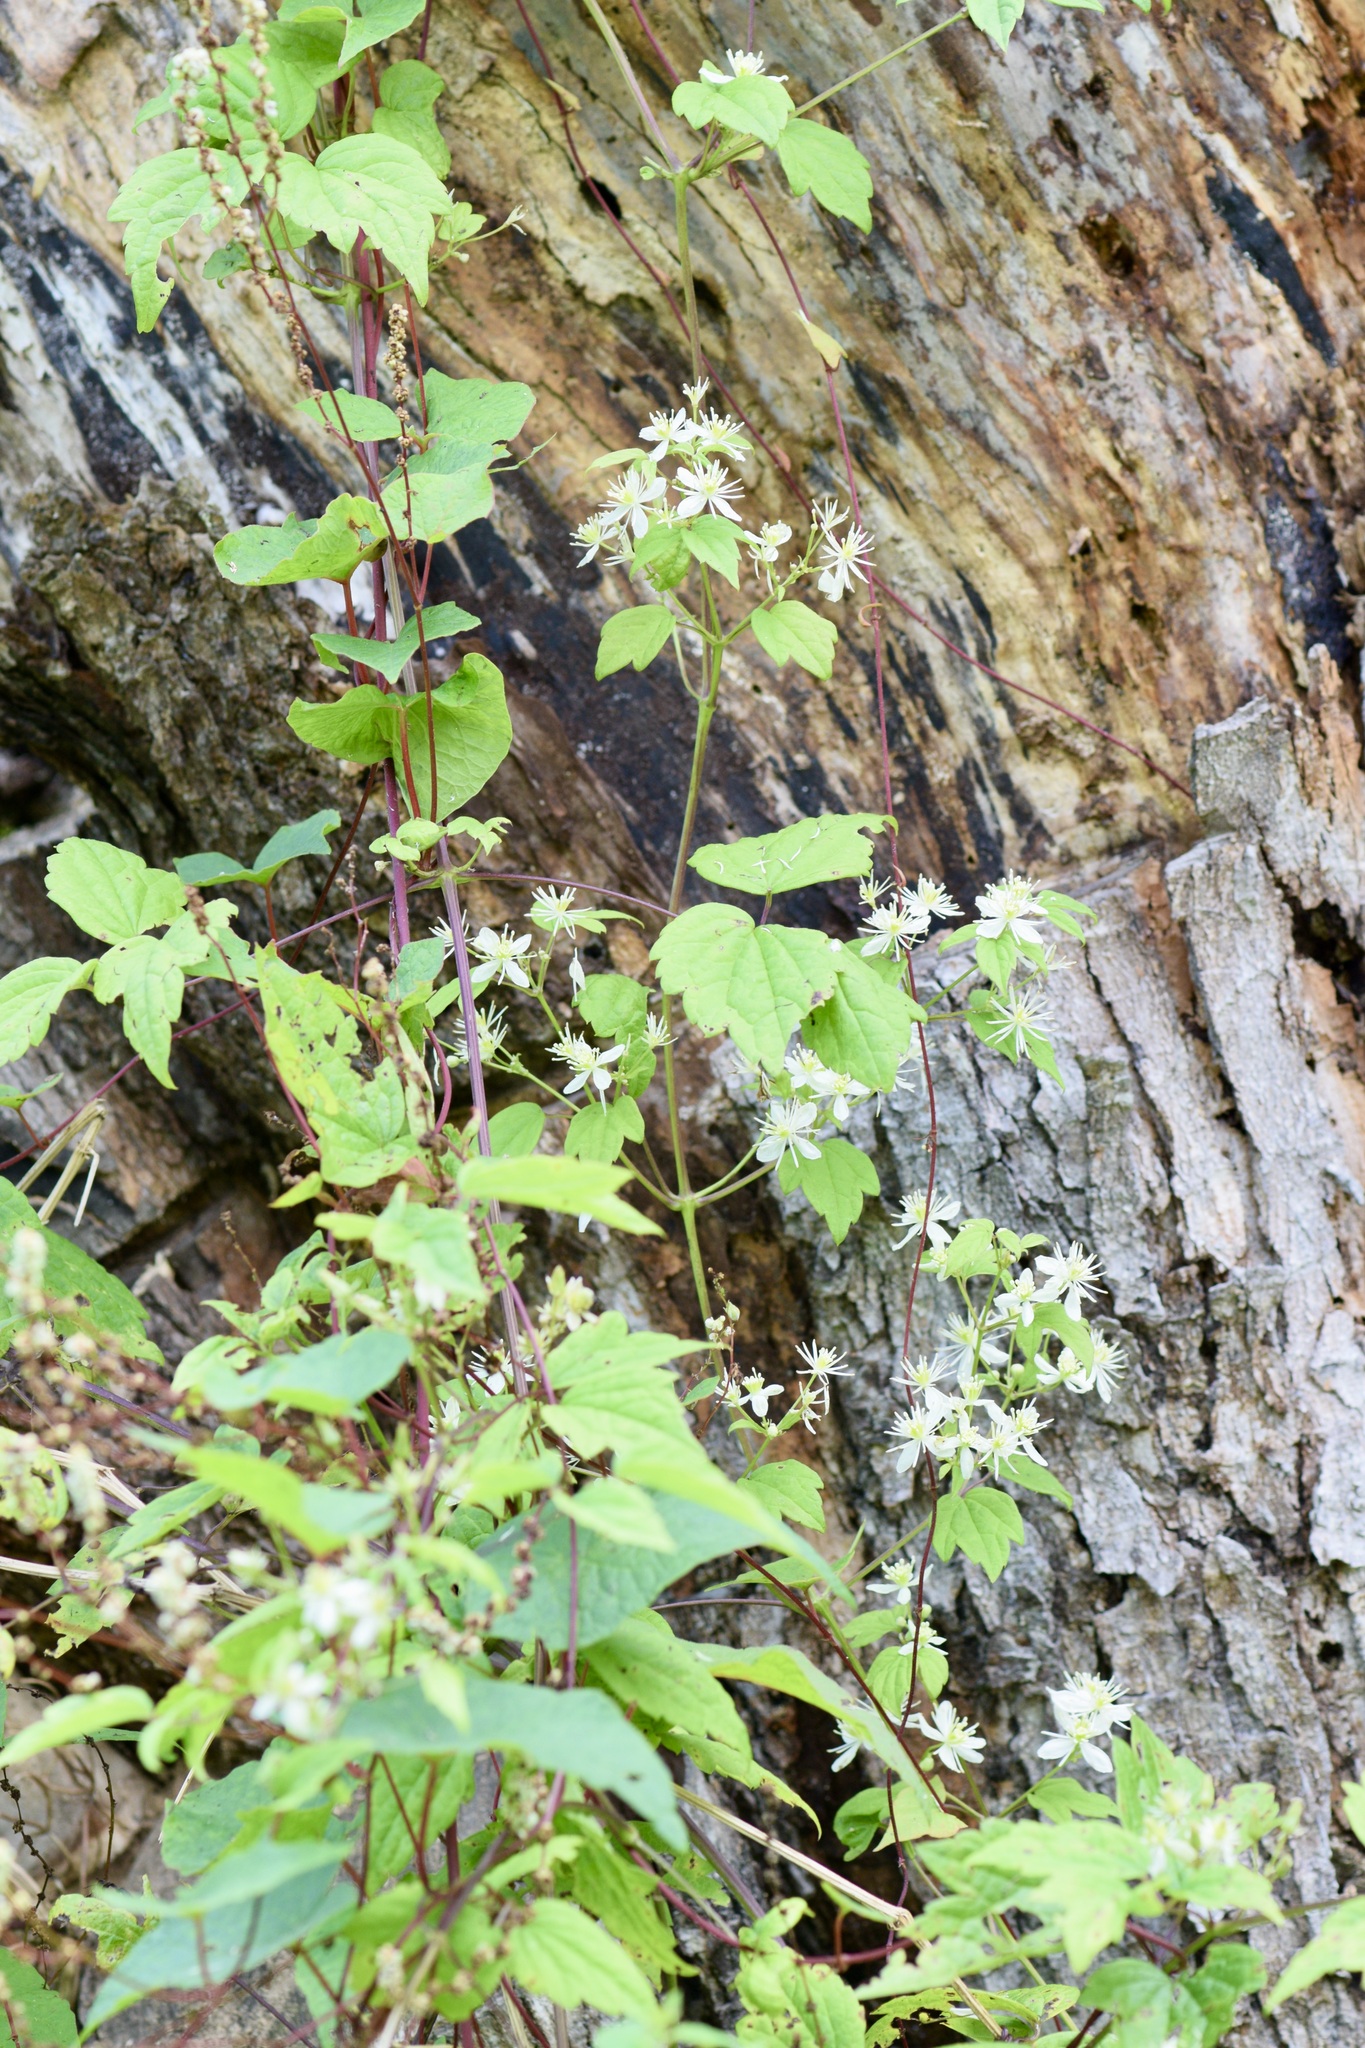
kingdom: Plantae
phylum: Tracheophyta
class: Magnoliopsida
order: Ranunculales
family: Ranunculaceae
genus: Clematis
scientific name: Clematis virginiana
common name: Virgin's-bower
